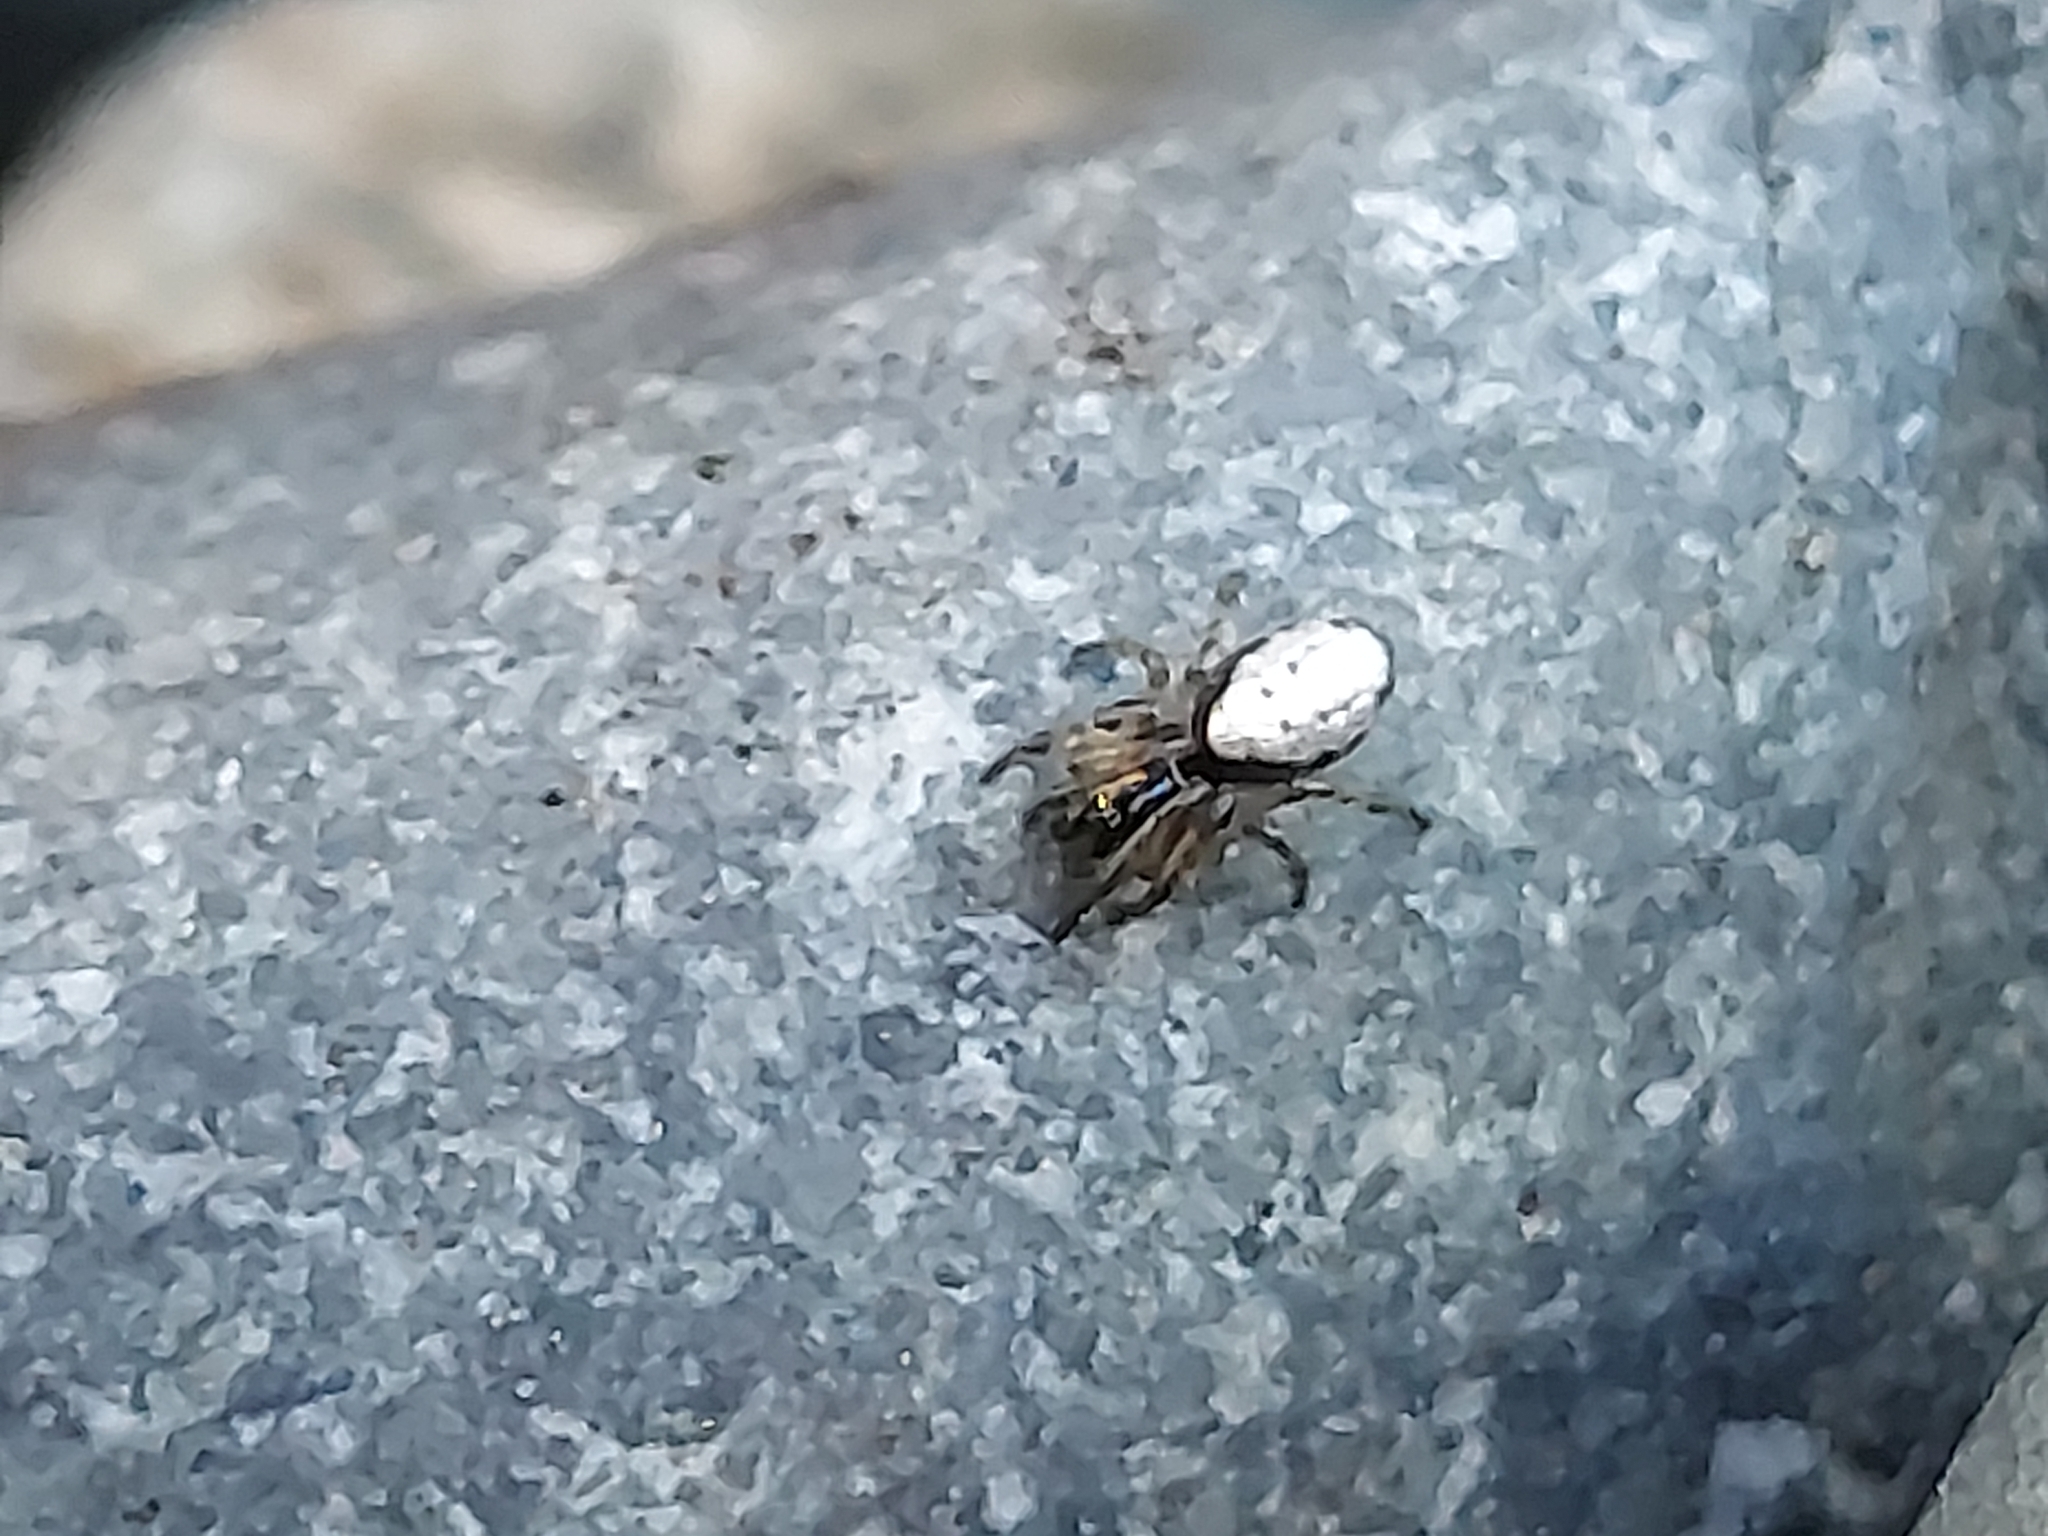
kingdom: Animalia
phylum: Arthropoda
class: Arachnida
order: Araneae
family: Araneidae
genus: Cyclosa
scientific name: Cyclosa argenteoalba
